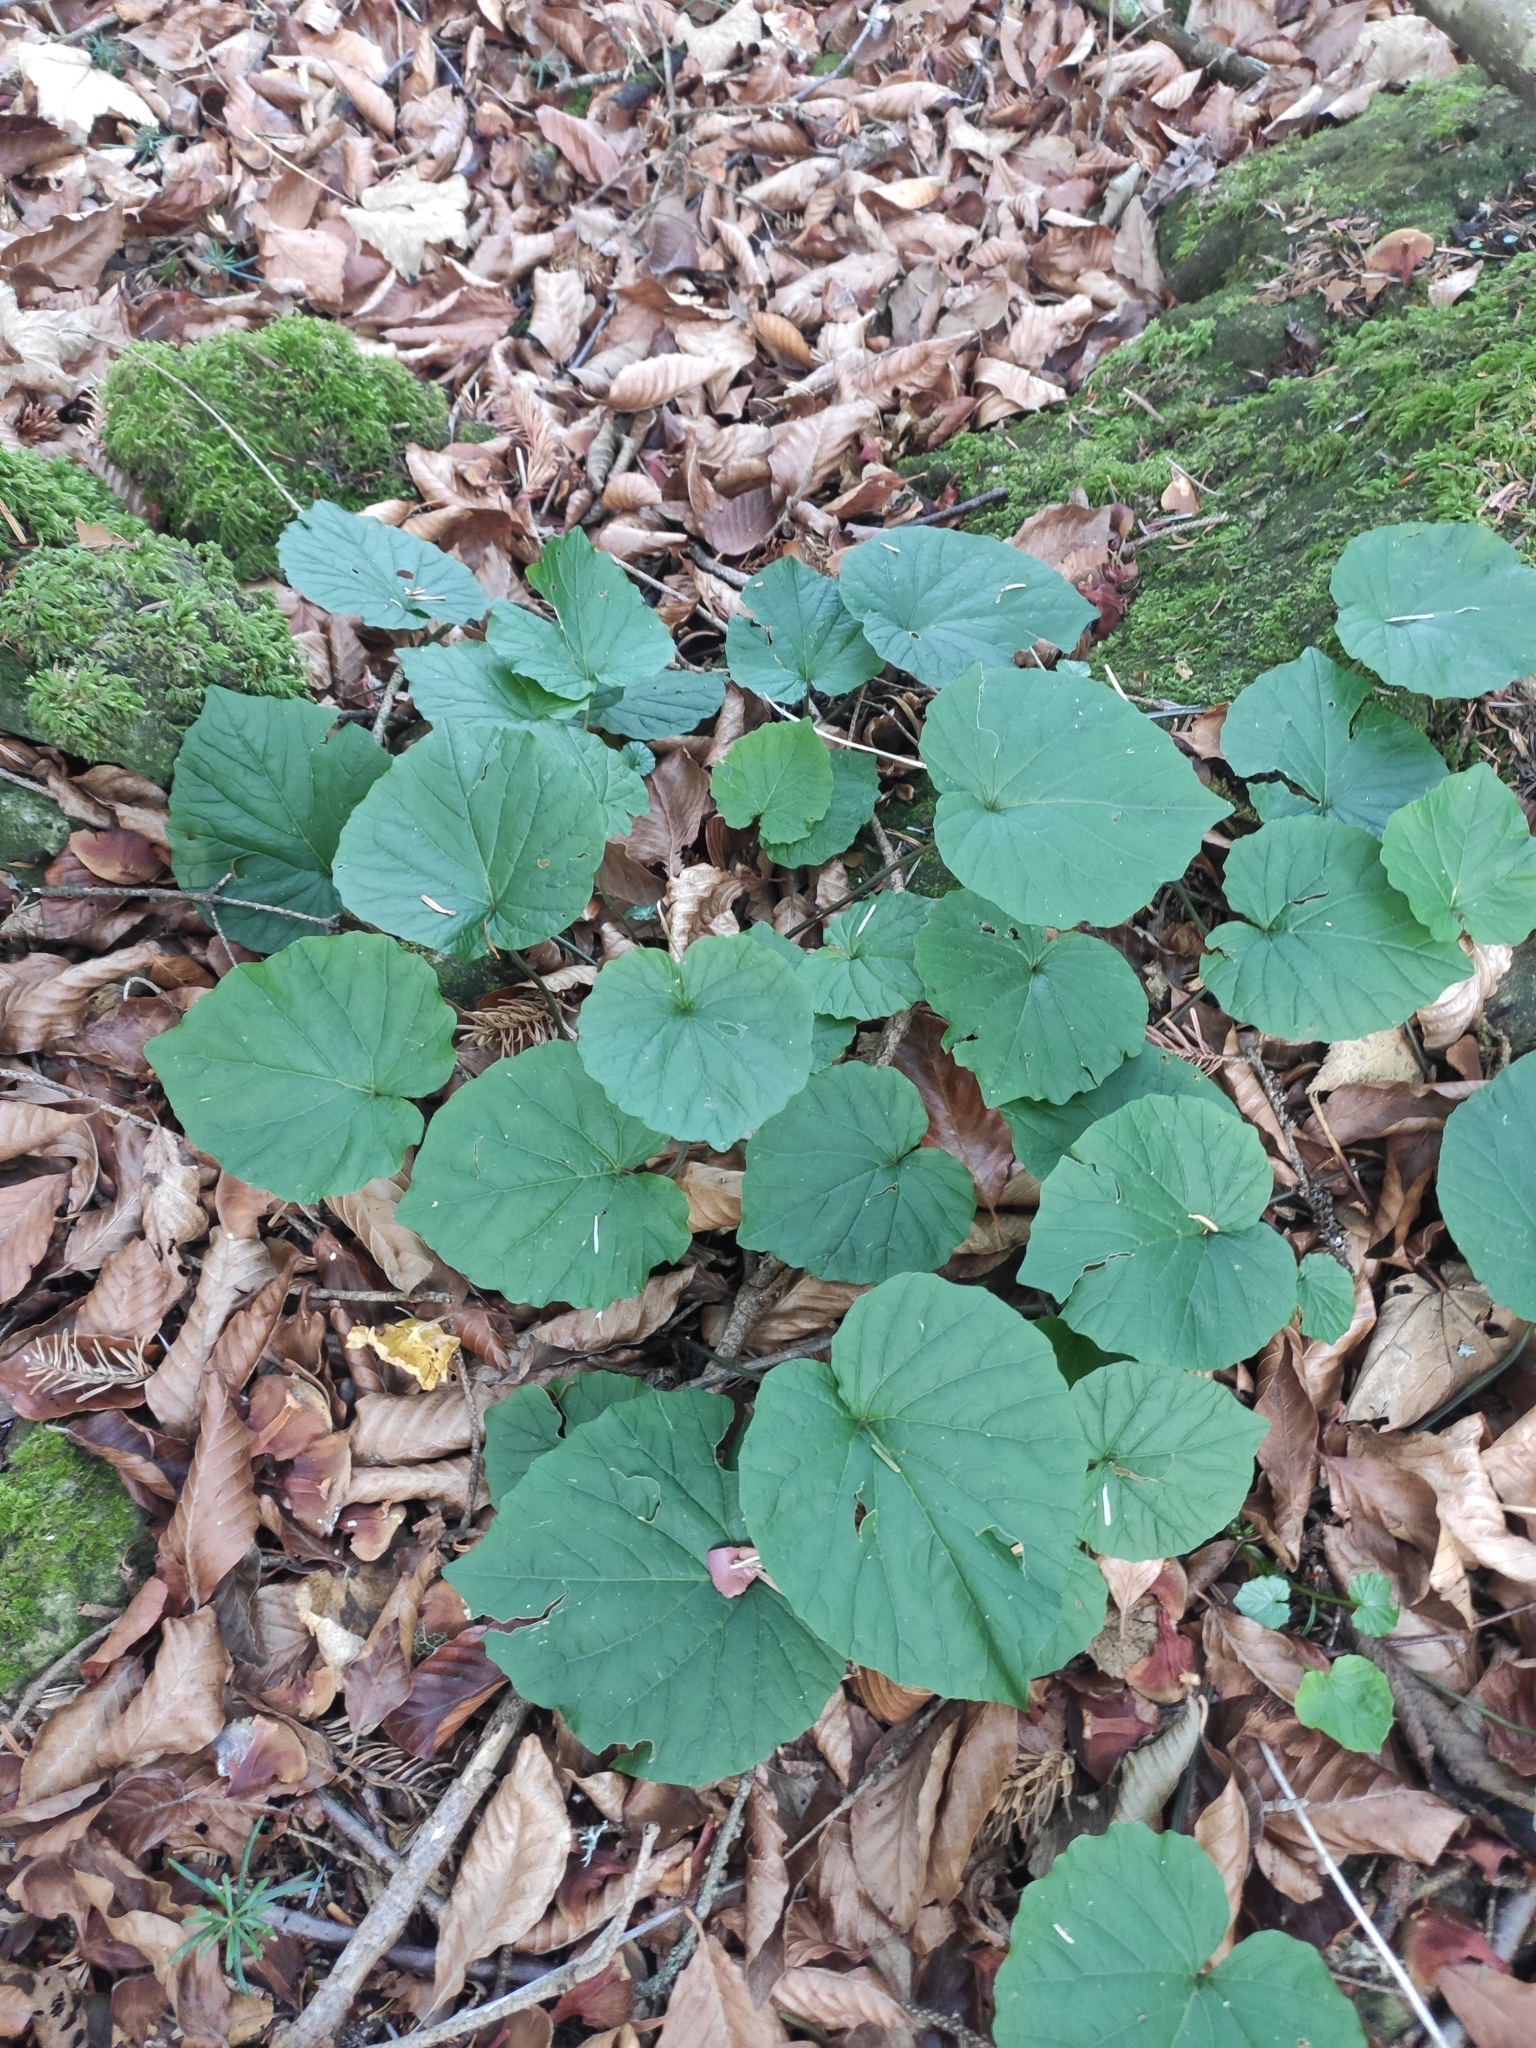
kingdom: Plantae
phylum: Tracheophyta
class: Magnoliopsida
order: Brassicales
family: Brassicaceae
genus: Pachyphragma
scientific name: Pachyphragma macrophyllum
